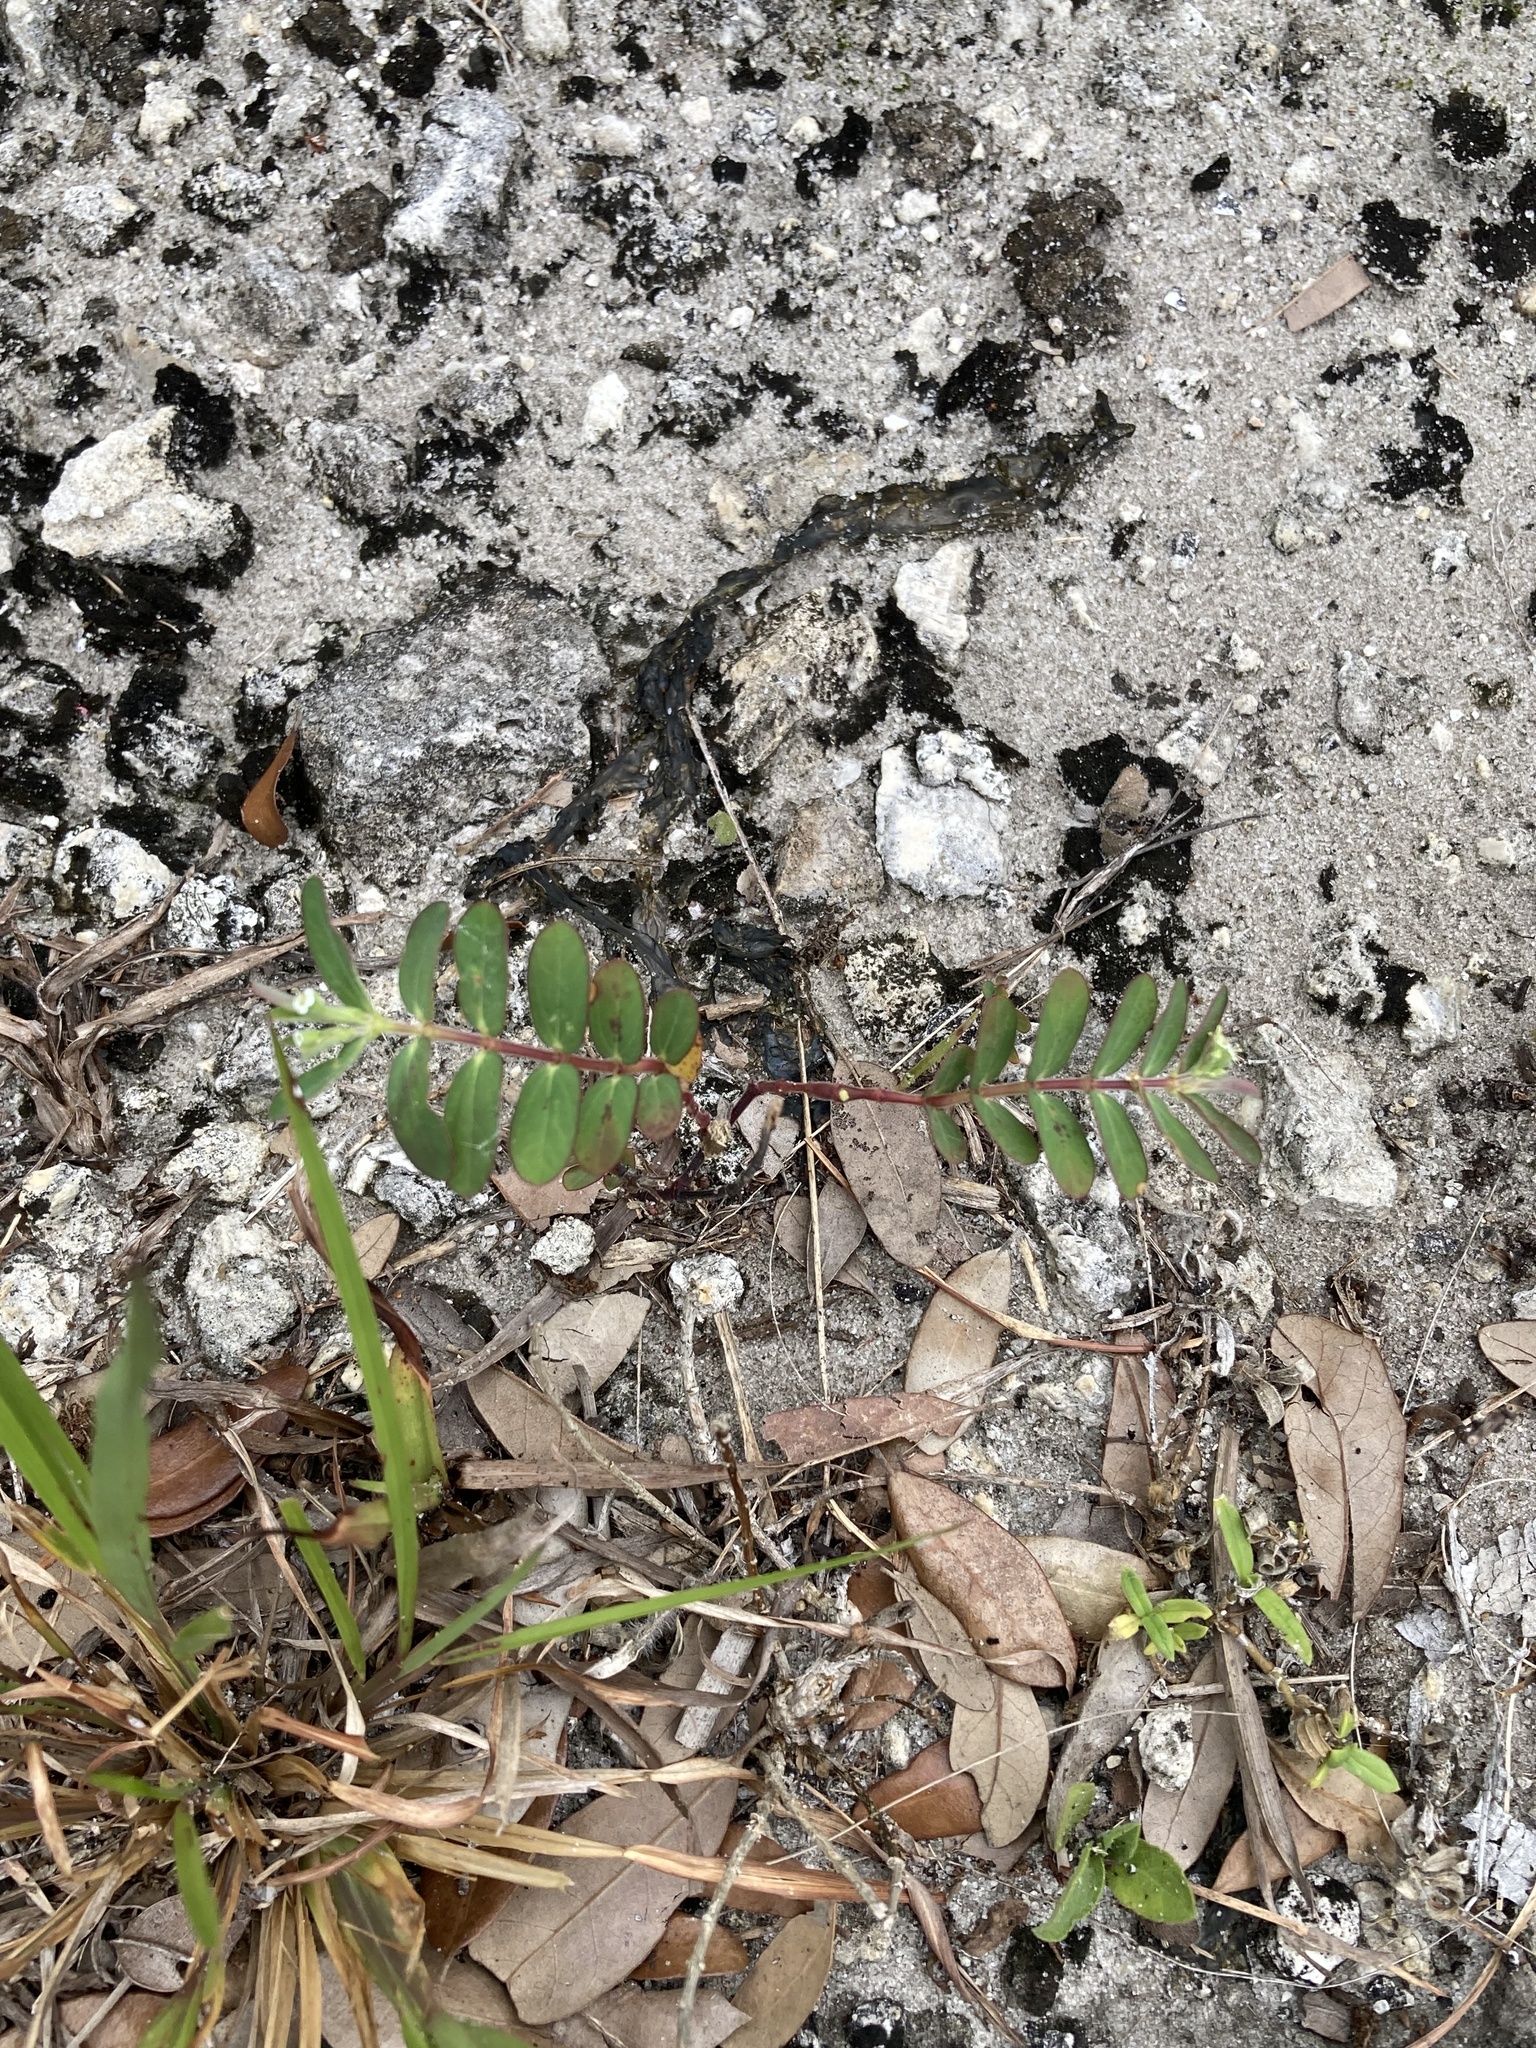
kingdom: Plantae
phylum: Tracheophyta
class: Magnoliopsida
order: Malpighiales
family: Euphorbiaceae
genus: Euphorbia
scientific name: Euphorbia lasiocarpa
